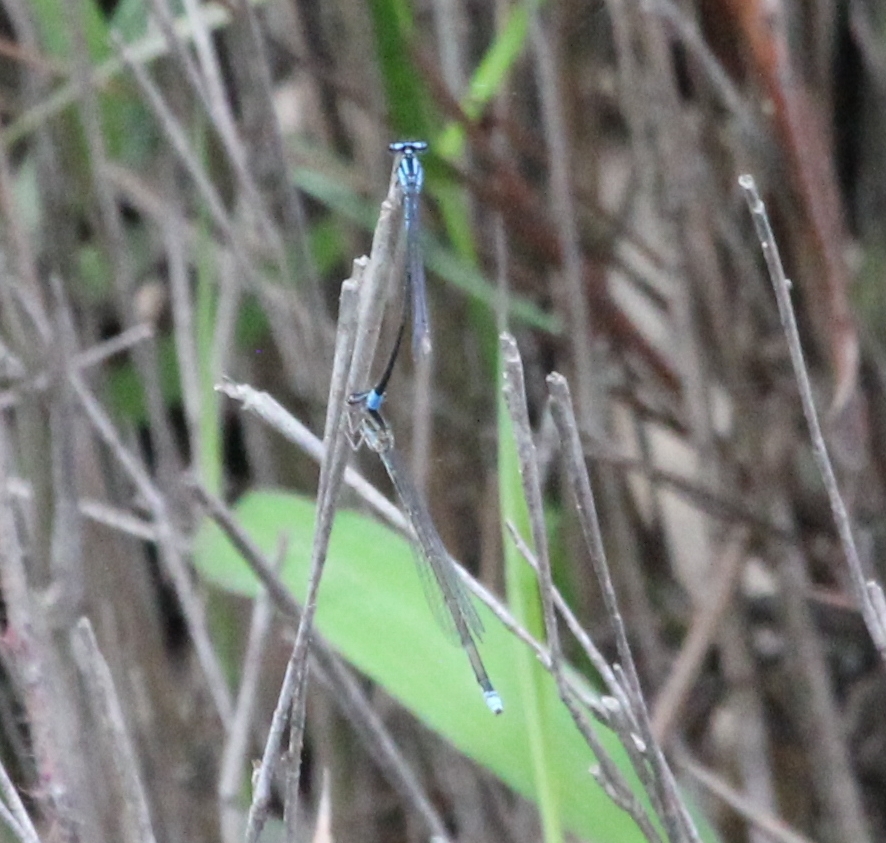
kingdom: Animalia
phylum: Arthropoda
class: Insecta
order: Odonata
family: Coenagrionidae
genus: Enallagma
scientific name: Enallagma divagans
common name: Turquoise bluet
